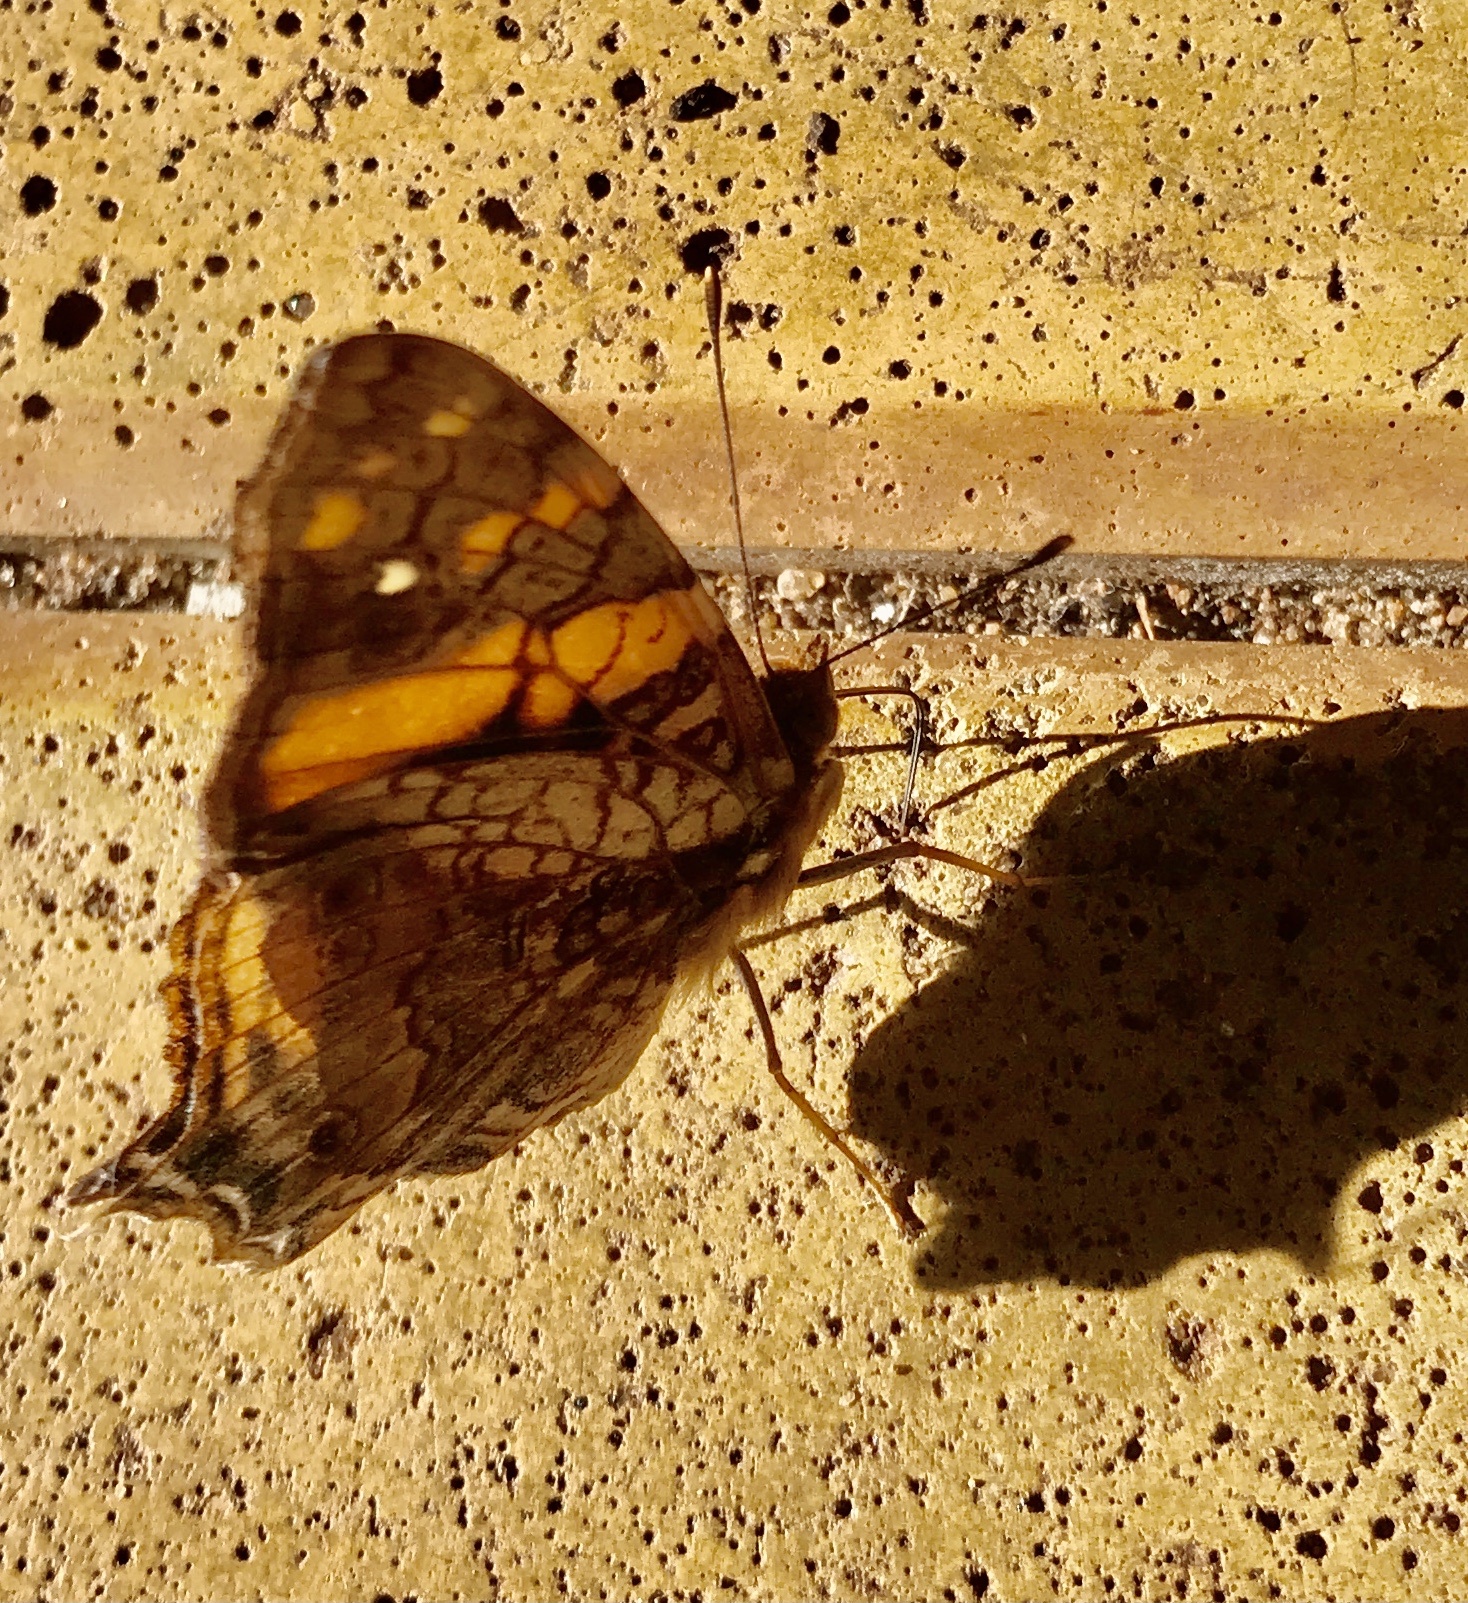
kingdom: Animalia
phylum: Arthropoda
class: Insecta
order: Lepidoptera
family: Nymphalidae
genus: Hypanartia
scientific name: Hypanartia lethe
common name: Orange mapwing
